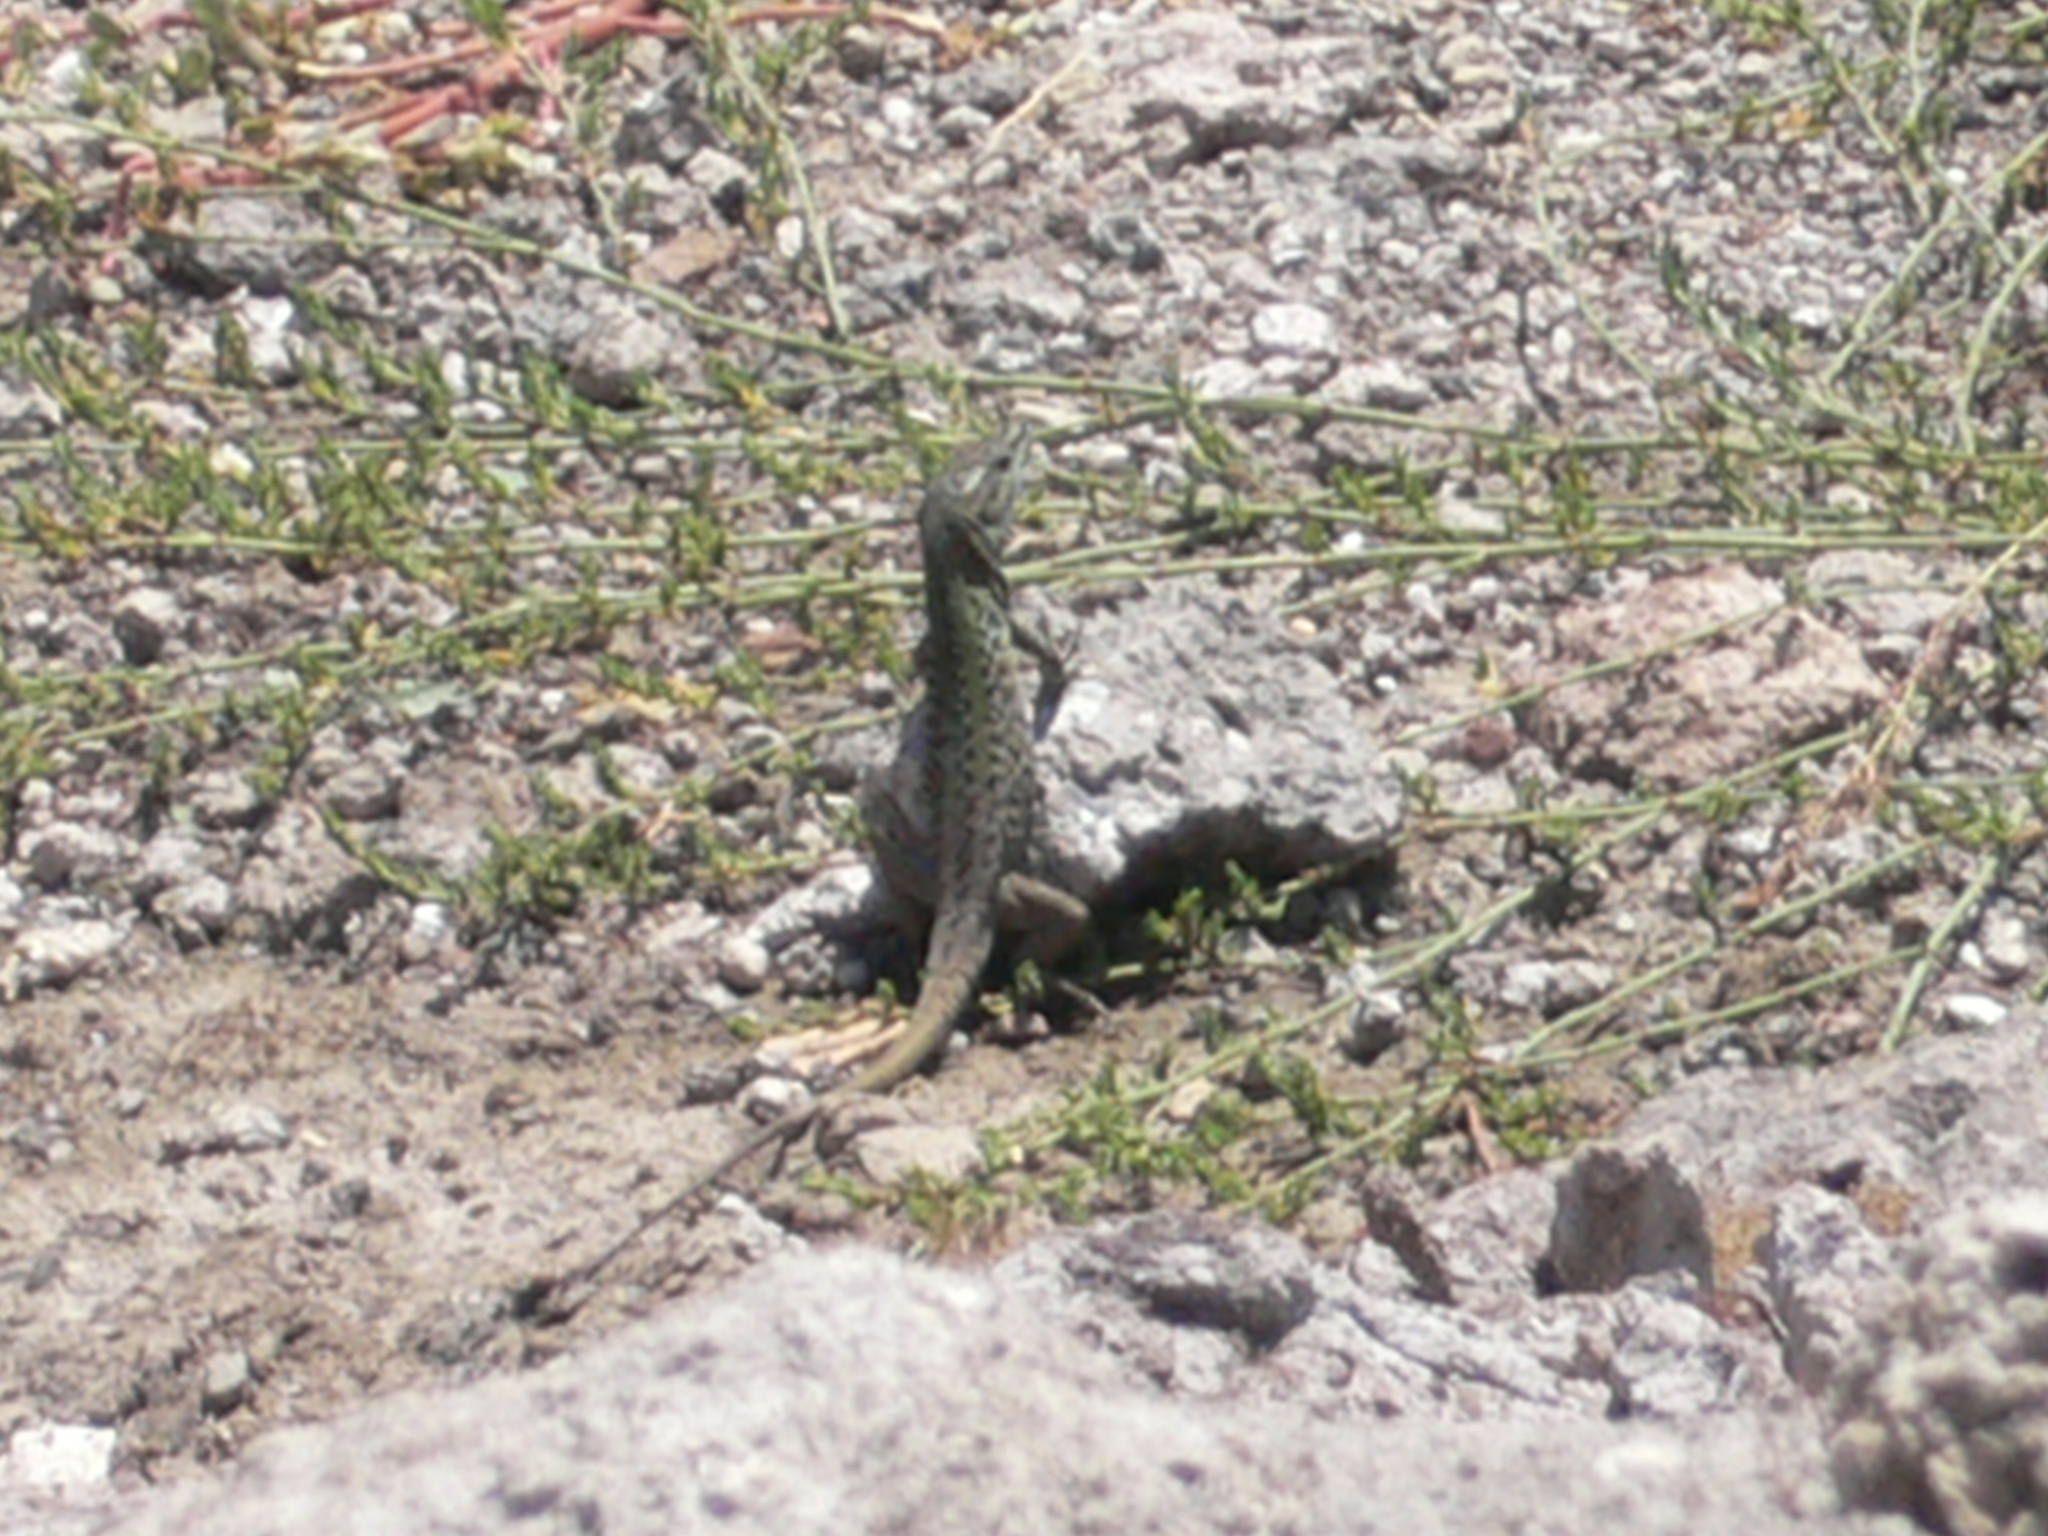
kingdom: Animalia
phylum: Chordata
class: Squamata
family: Lacertidae
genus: Podarcis
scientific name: Podarcis siculus
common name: Italian wall lizard
